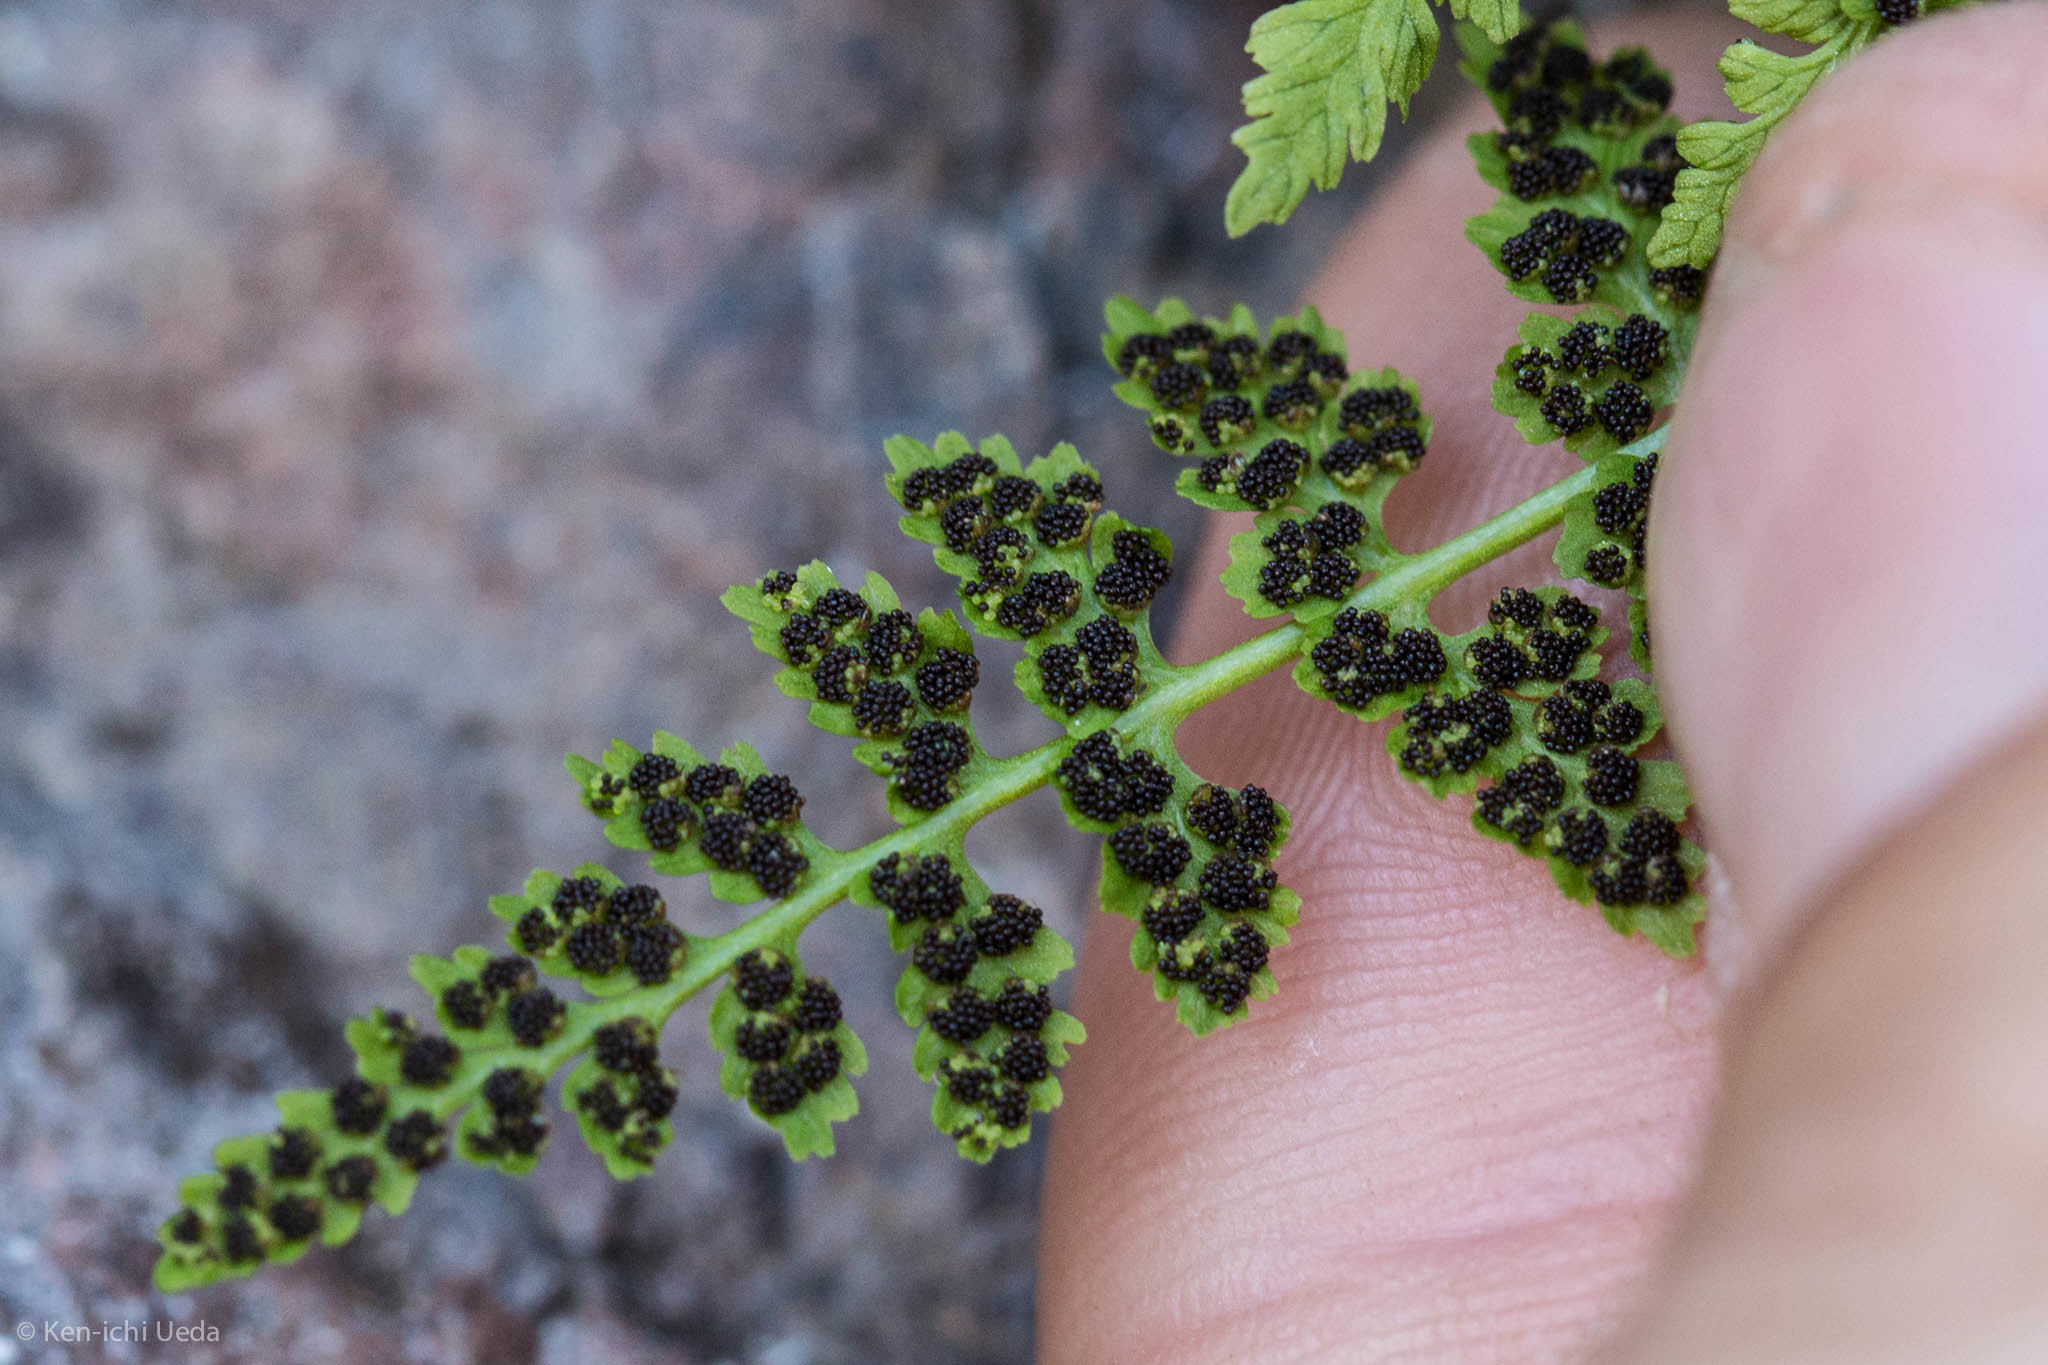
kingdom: Plantae
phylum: Tracheophyta
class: Polypodiopsida
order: Polypodiales
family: Cystopteridaceae
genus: Cystopteris
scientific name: Cystopteris fragilis
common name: Brittle bladder fern
